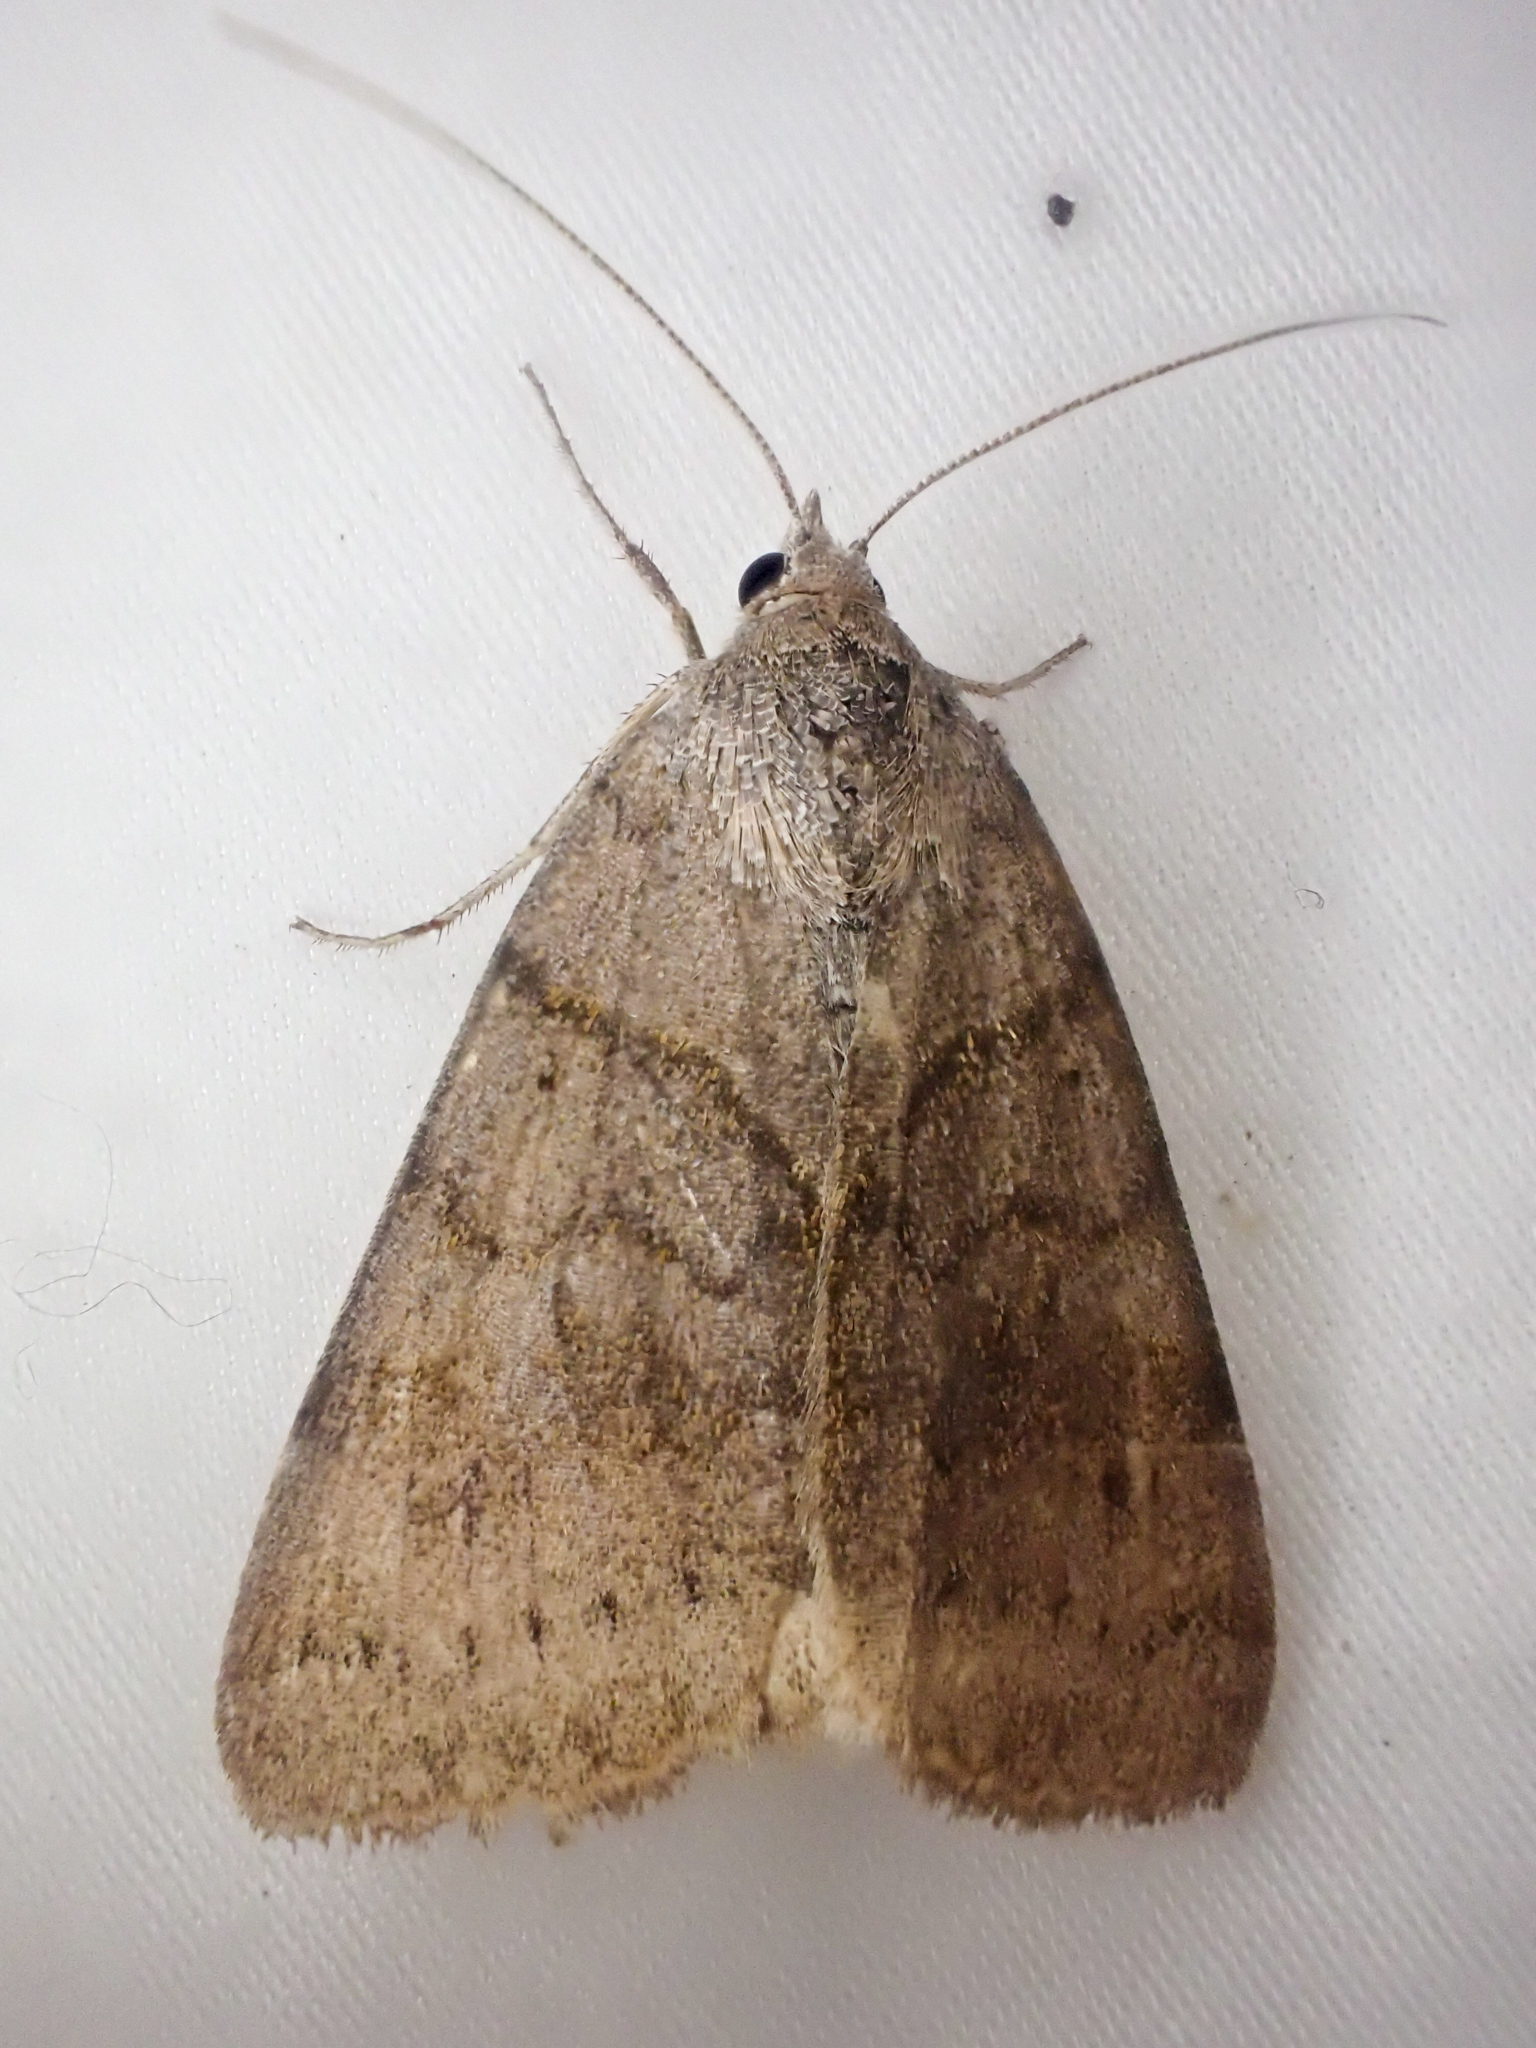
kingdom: Animalia
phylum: Arthropoda
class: Insecta
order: Lepidoptera
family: Erebidae
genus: Caenurgina
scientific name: Caenurgina erechtea
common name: Forage looper moth
